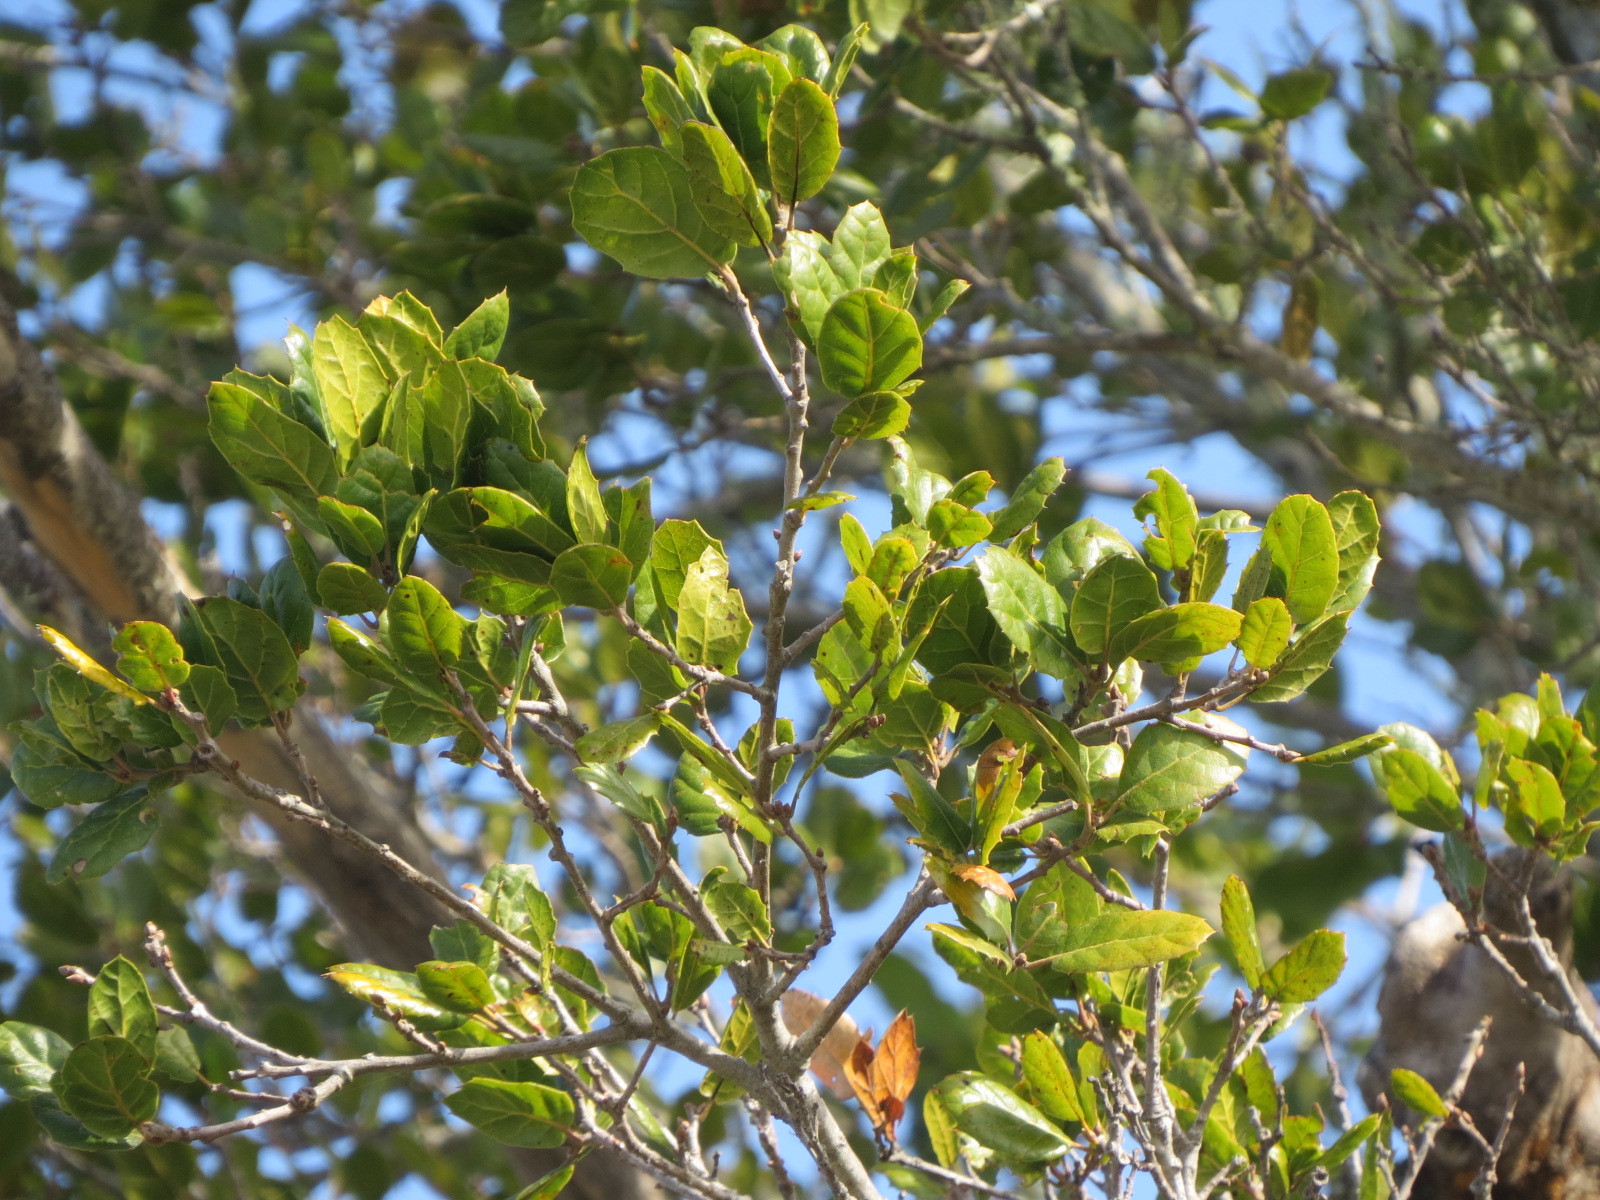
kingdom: Plantae
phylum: Tracheophyta
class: Magnoliopsida
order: Fagales
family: Fagaceae
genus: Quercus
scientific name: Quercus agrifolia
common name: California live oak
